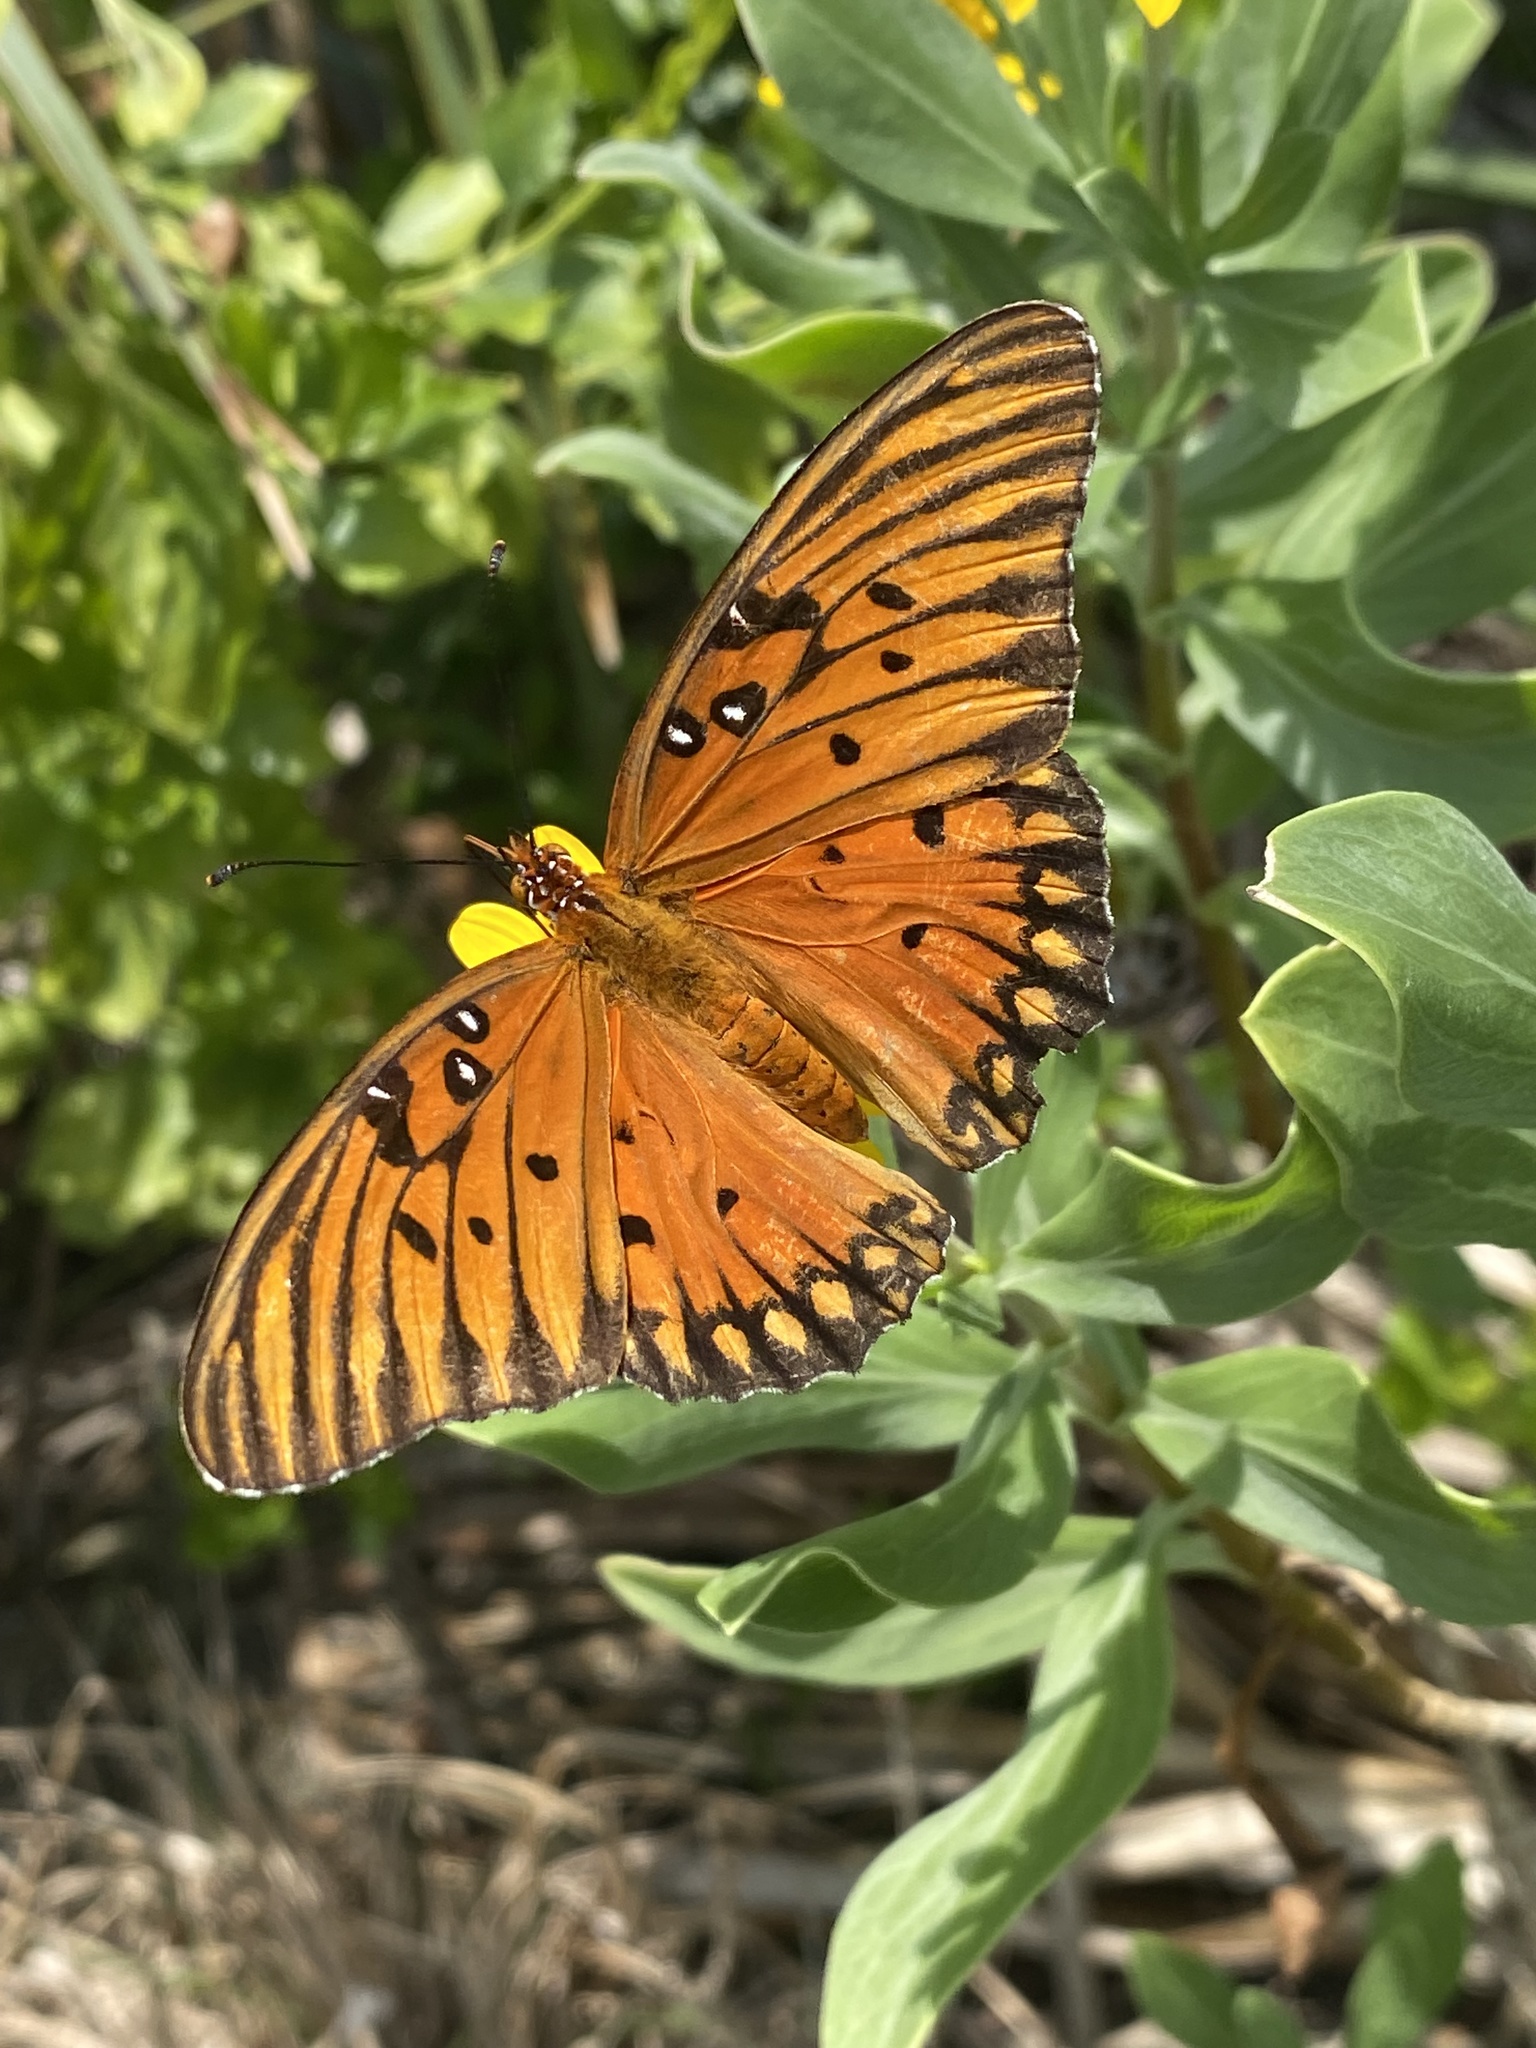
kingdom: Animalia
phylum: Arthropoda
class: Insecta
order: Lepidoptera
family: Nymphalidae
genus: Dione
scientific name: Dione vanillae
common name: Gulf fritillary
